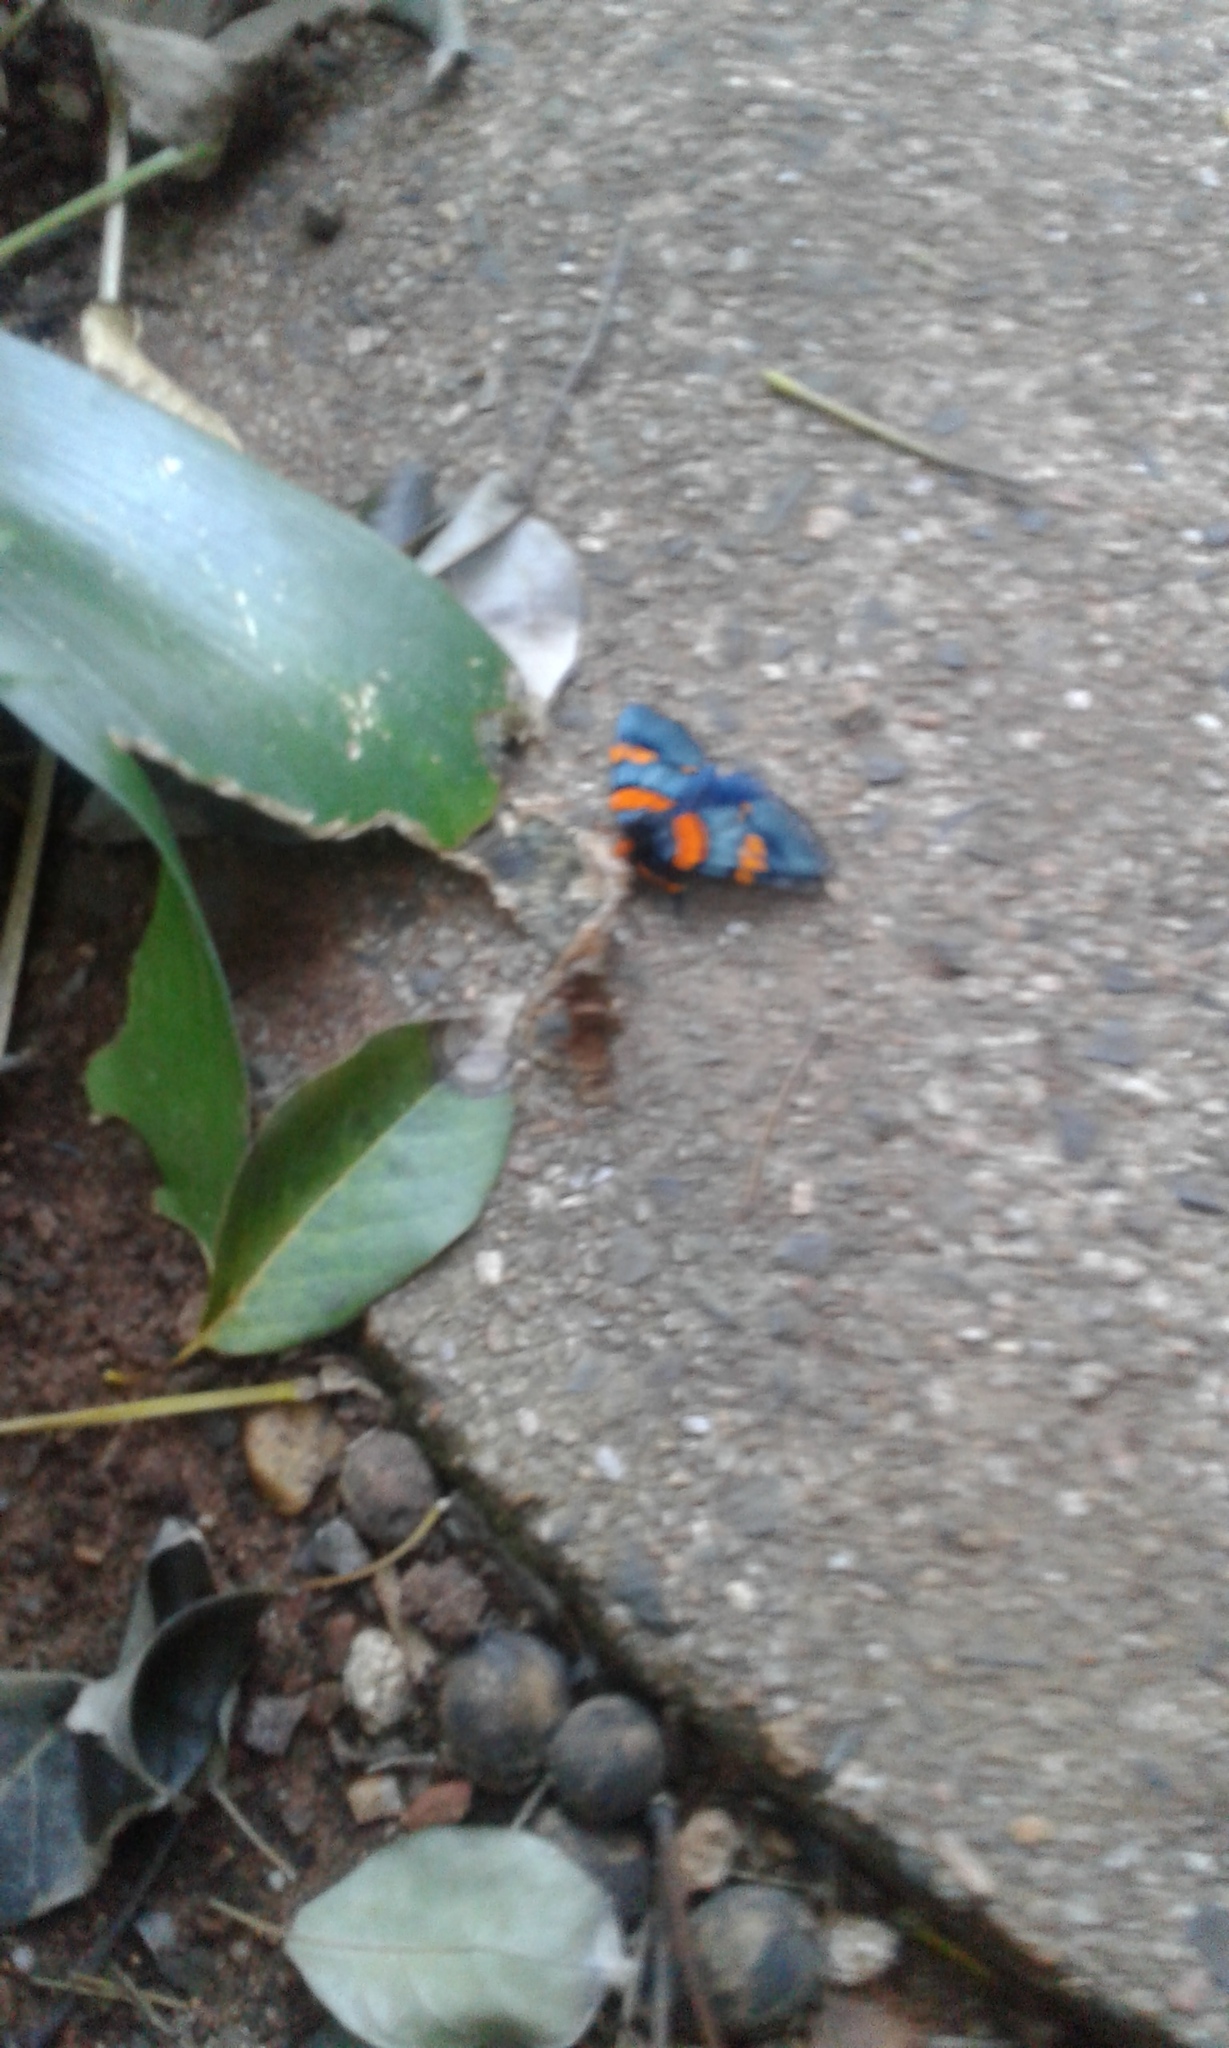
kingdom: Animalia
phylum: Arthropoda
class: Insecta
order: Lepidoptera
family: Erebidae
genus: Egybolis
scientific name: Egybolis vaillantina
